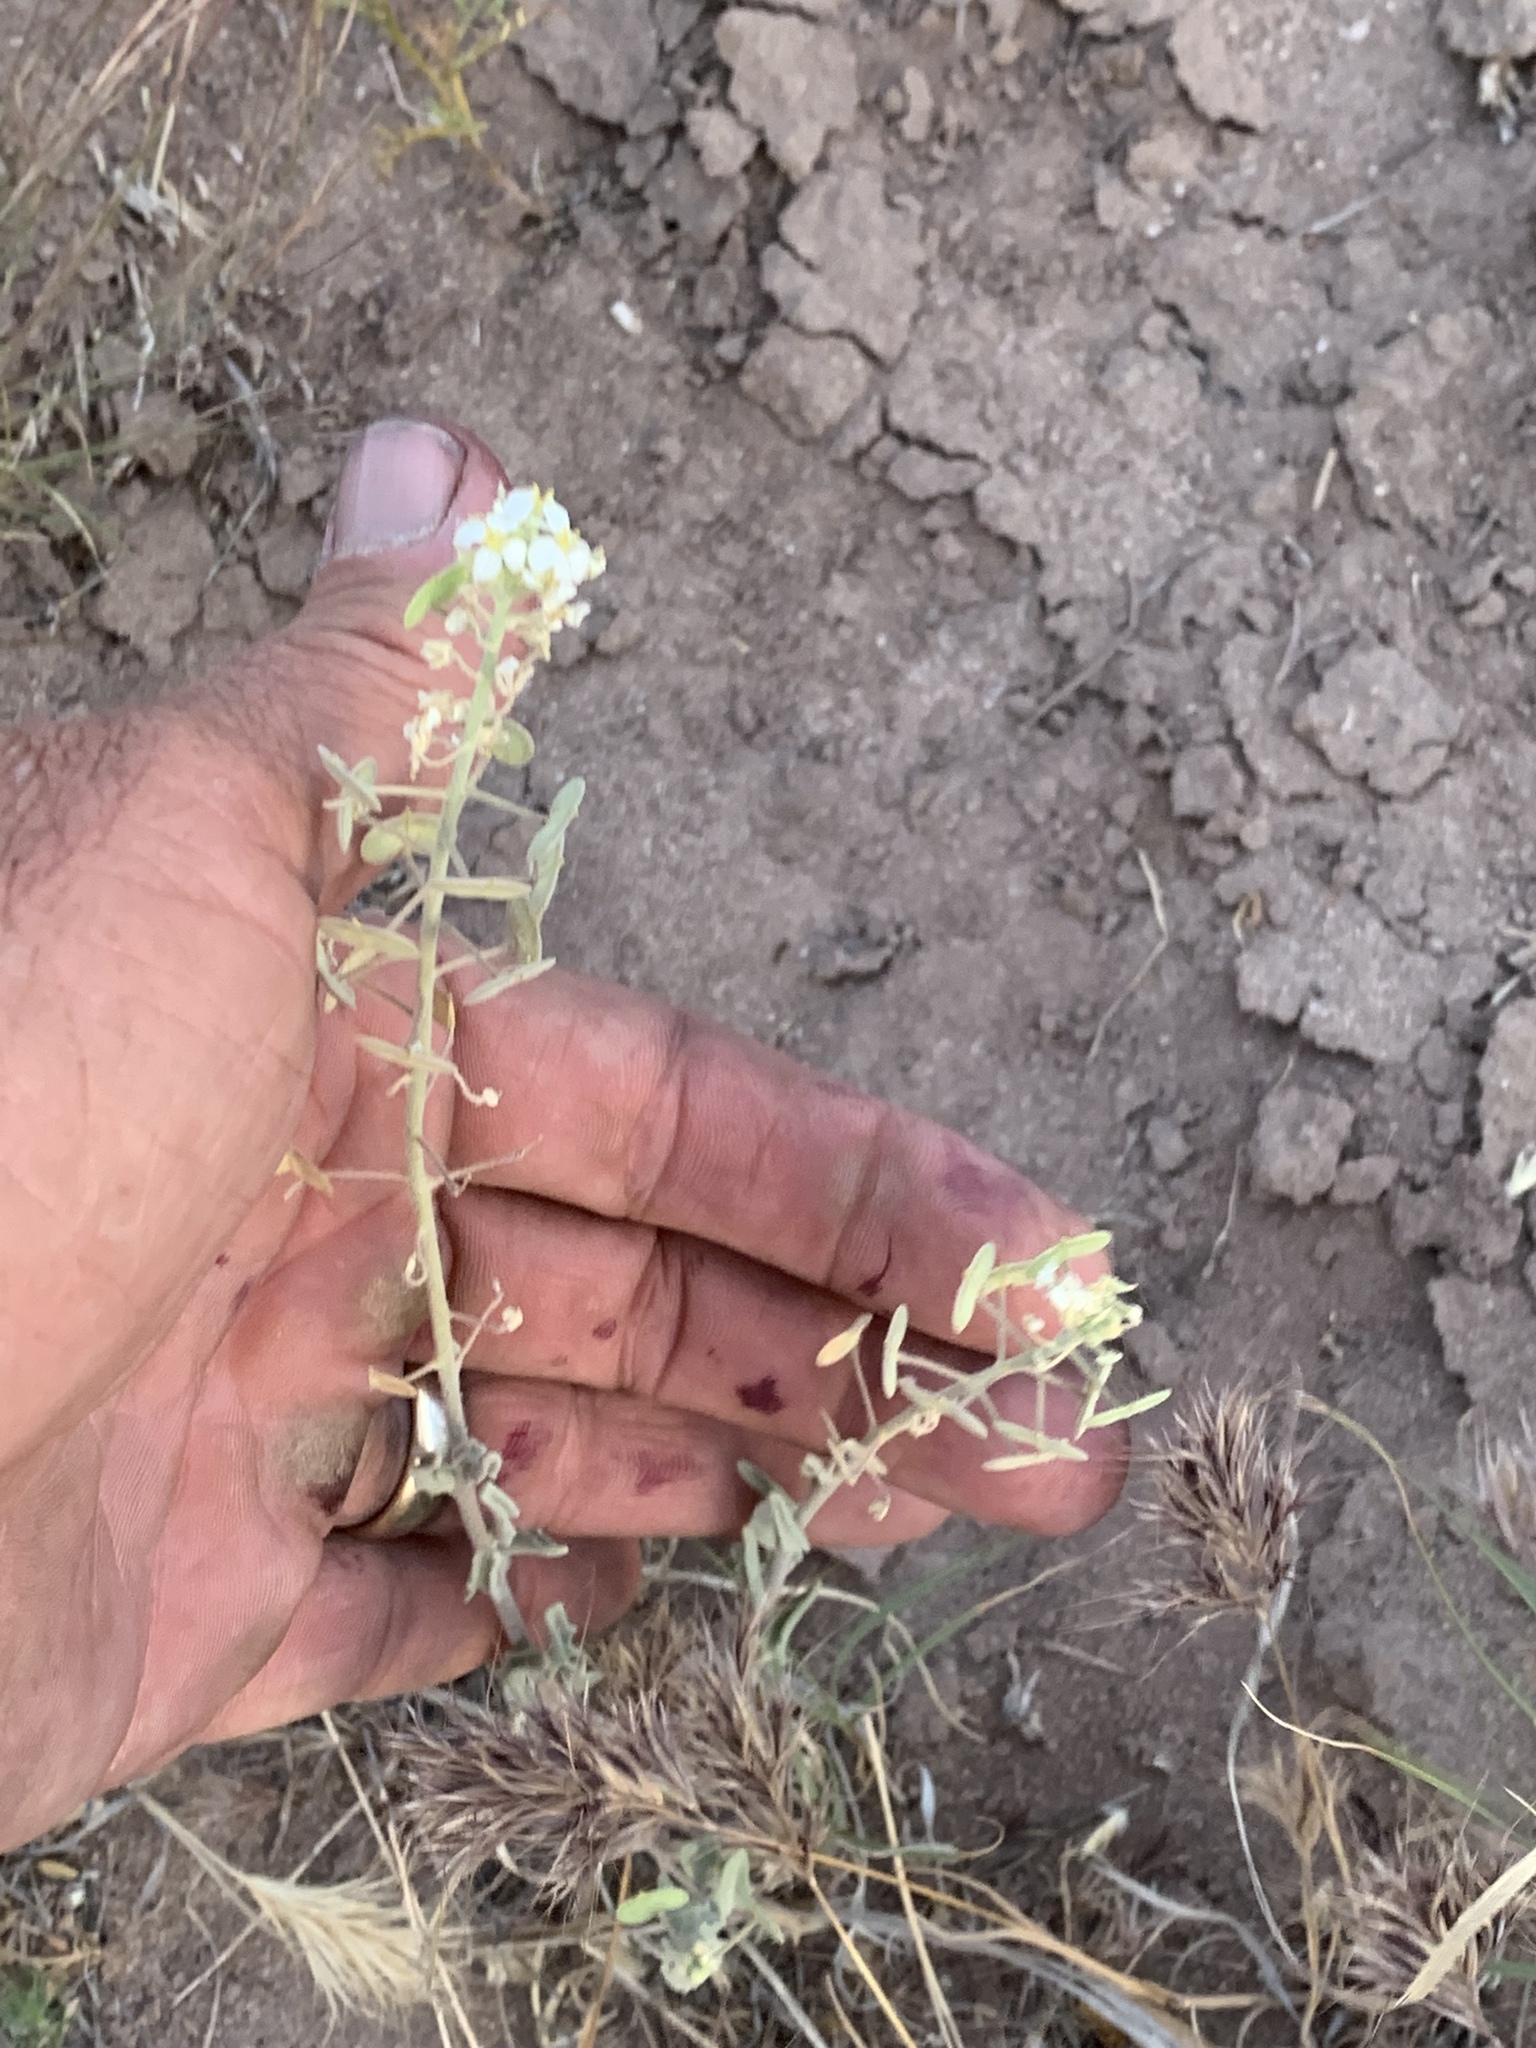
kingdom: Plantae
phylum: Tracheophyta
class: Magnoliopsida
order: Brassicales
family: Brassicaceae
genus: Dimorphocarpa
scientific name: Dimorphocarpa wislizenii
